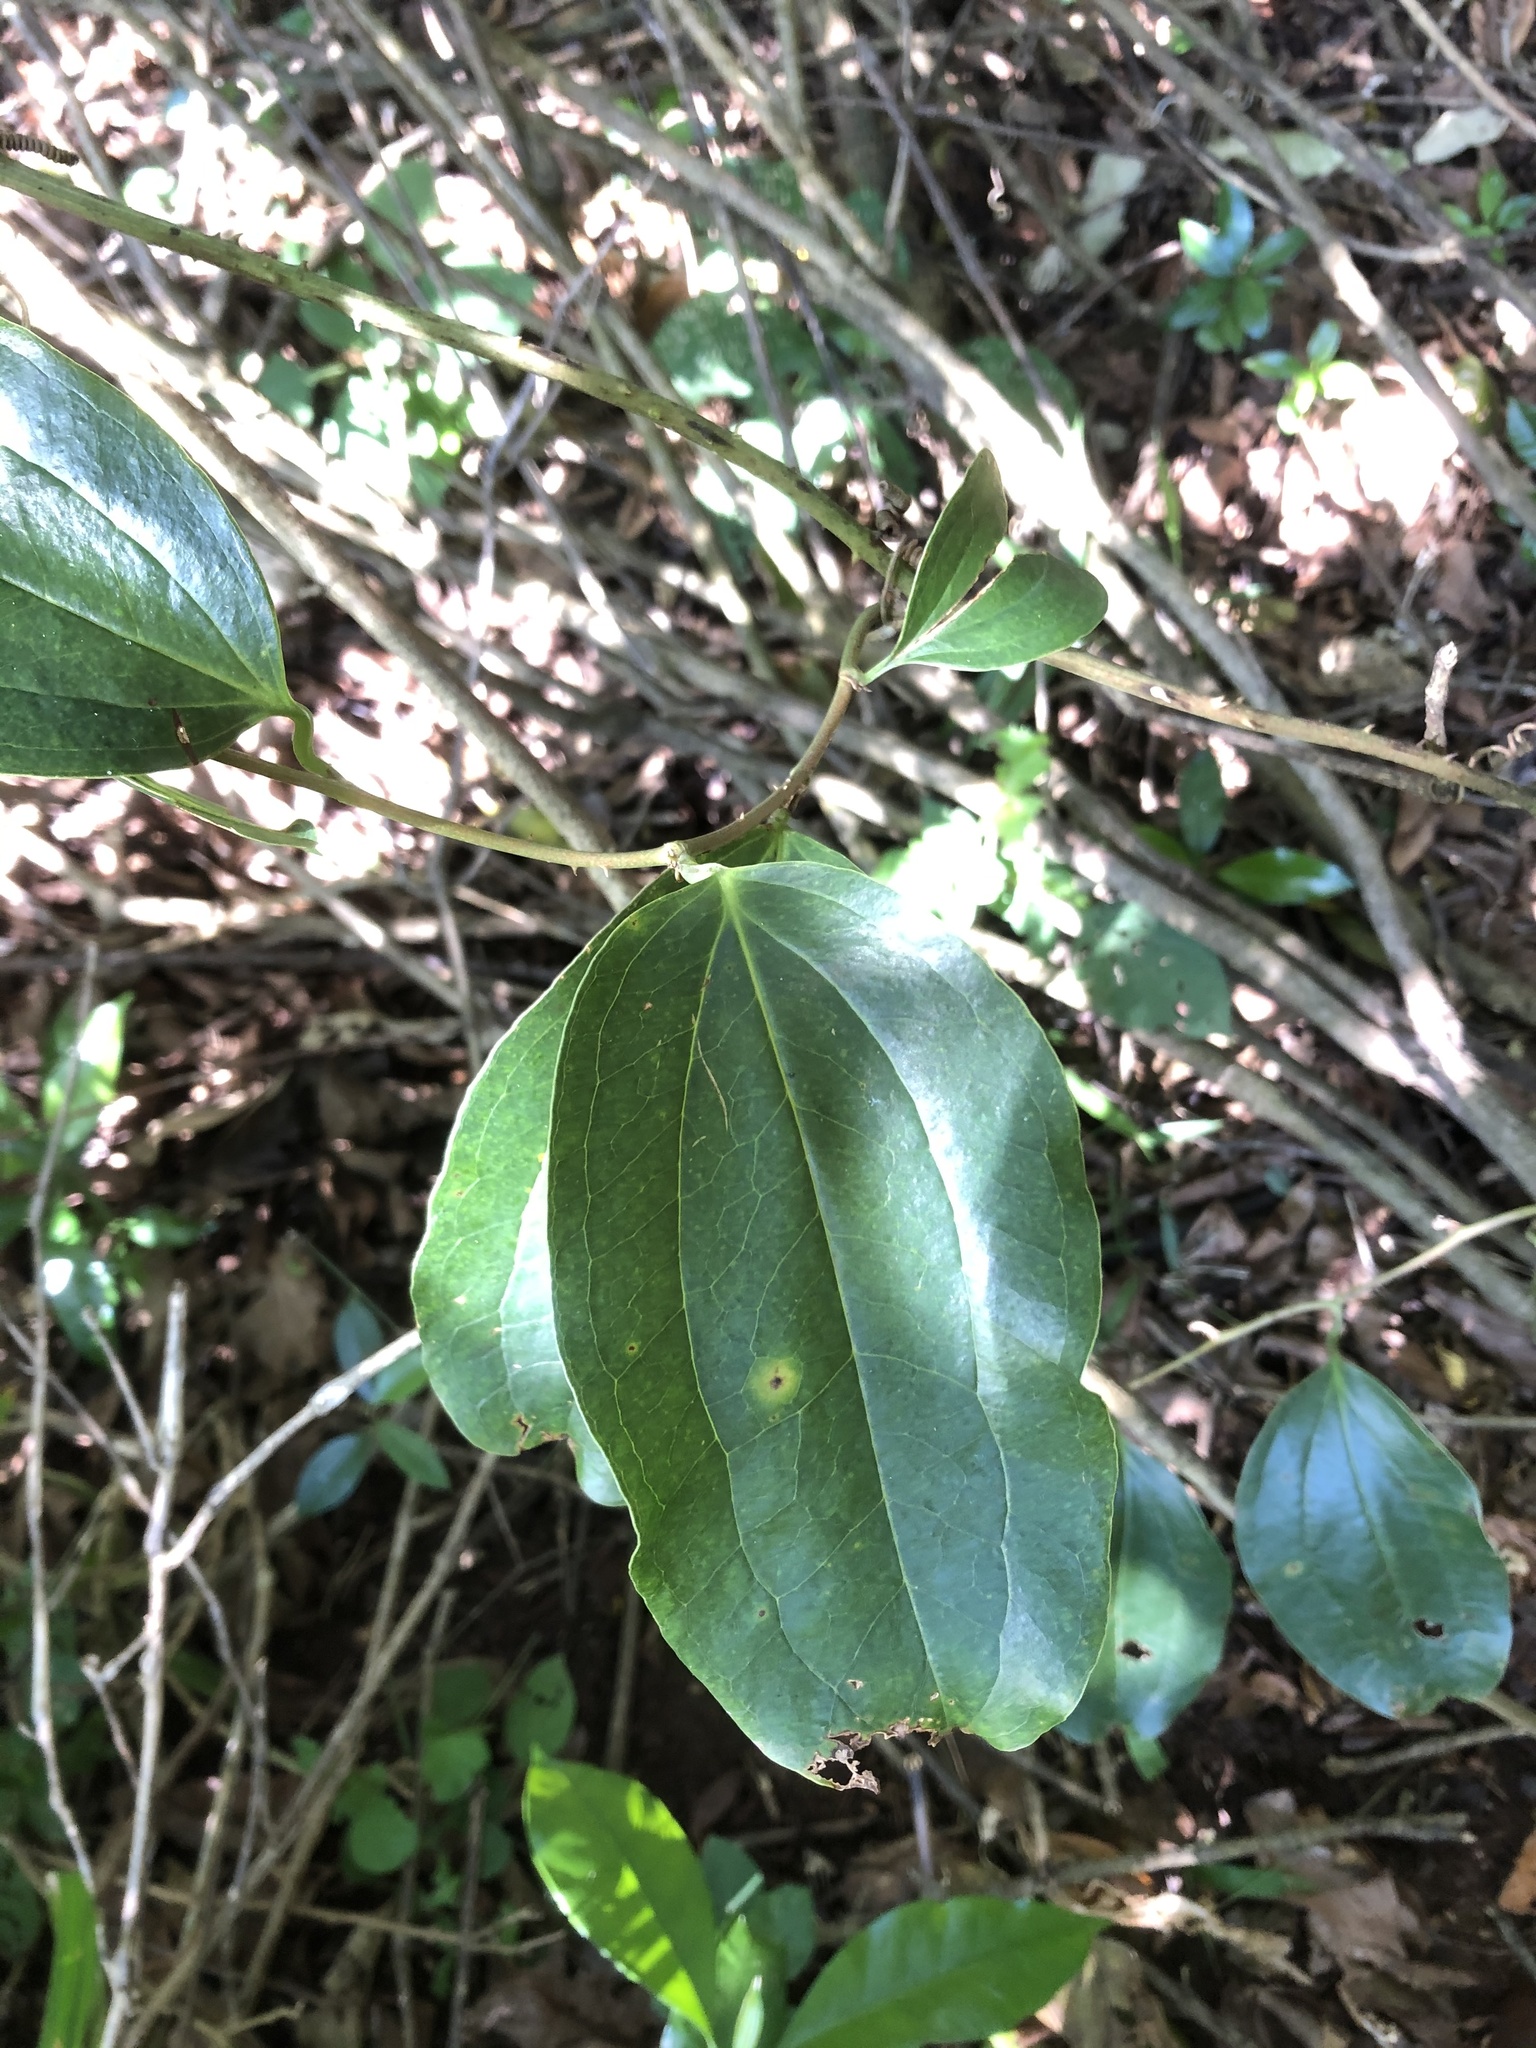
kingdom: Plantae
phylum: Tracheophyta
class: Liliopsida
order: Liliales
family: Smilacaceae
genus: Smilax
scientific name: Smilax anceps
